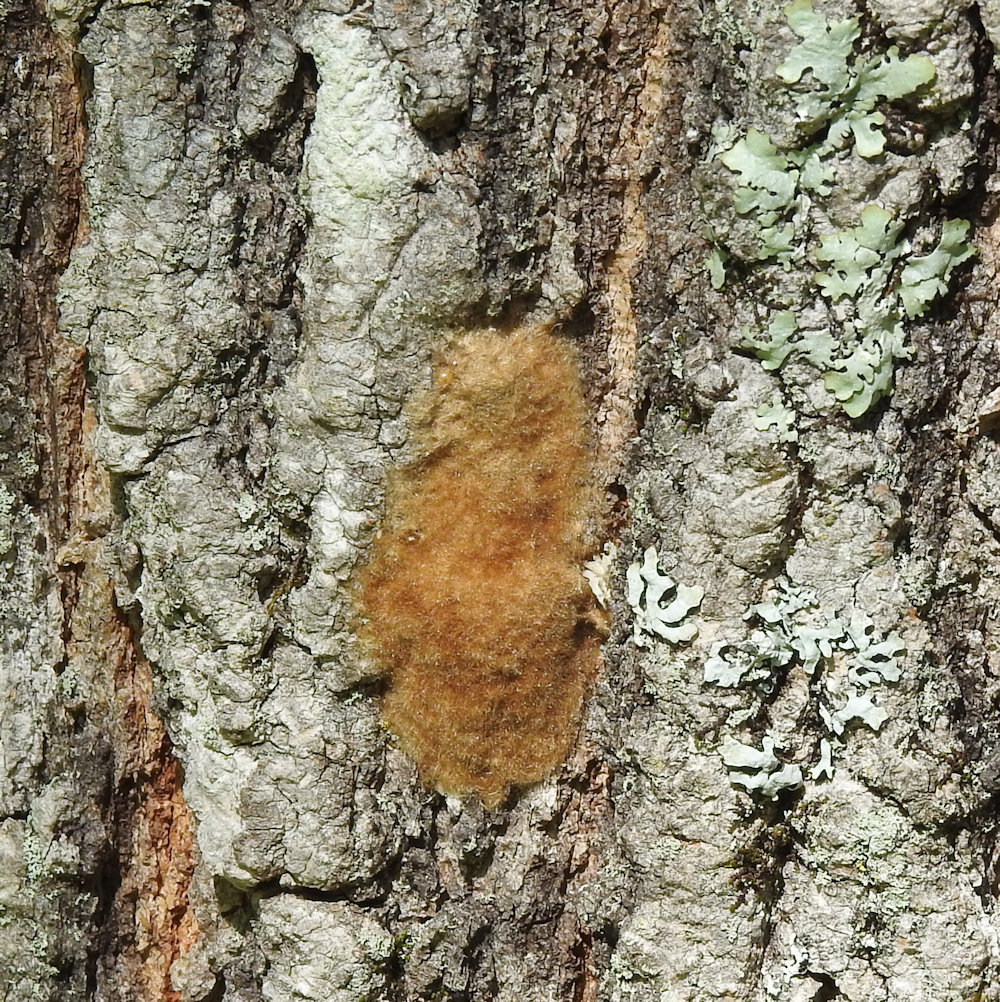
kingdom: Animalia
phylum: Arthropoda
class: Insecta
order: Lepidoptera
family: Erebidae
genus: Lymantria
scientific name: Lymantria dispar
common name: Gypsy moth
